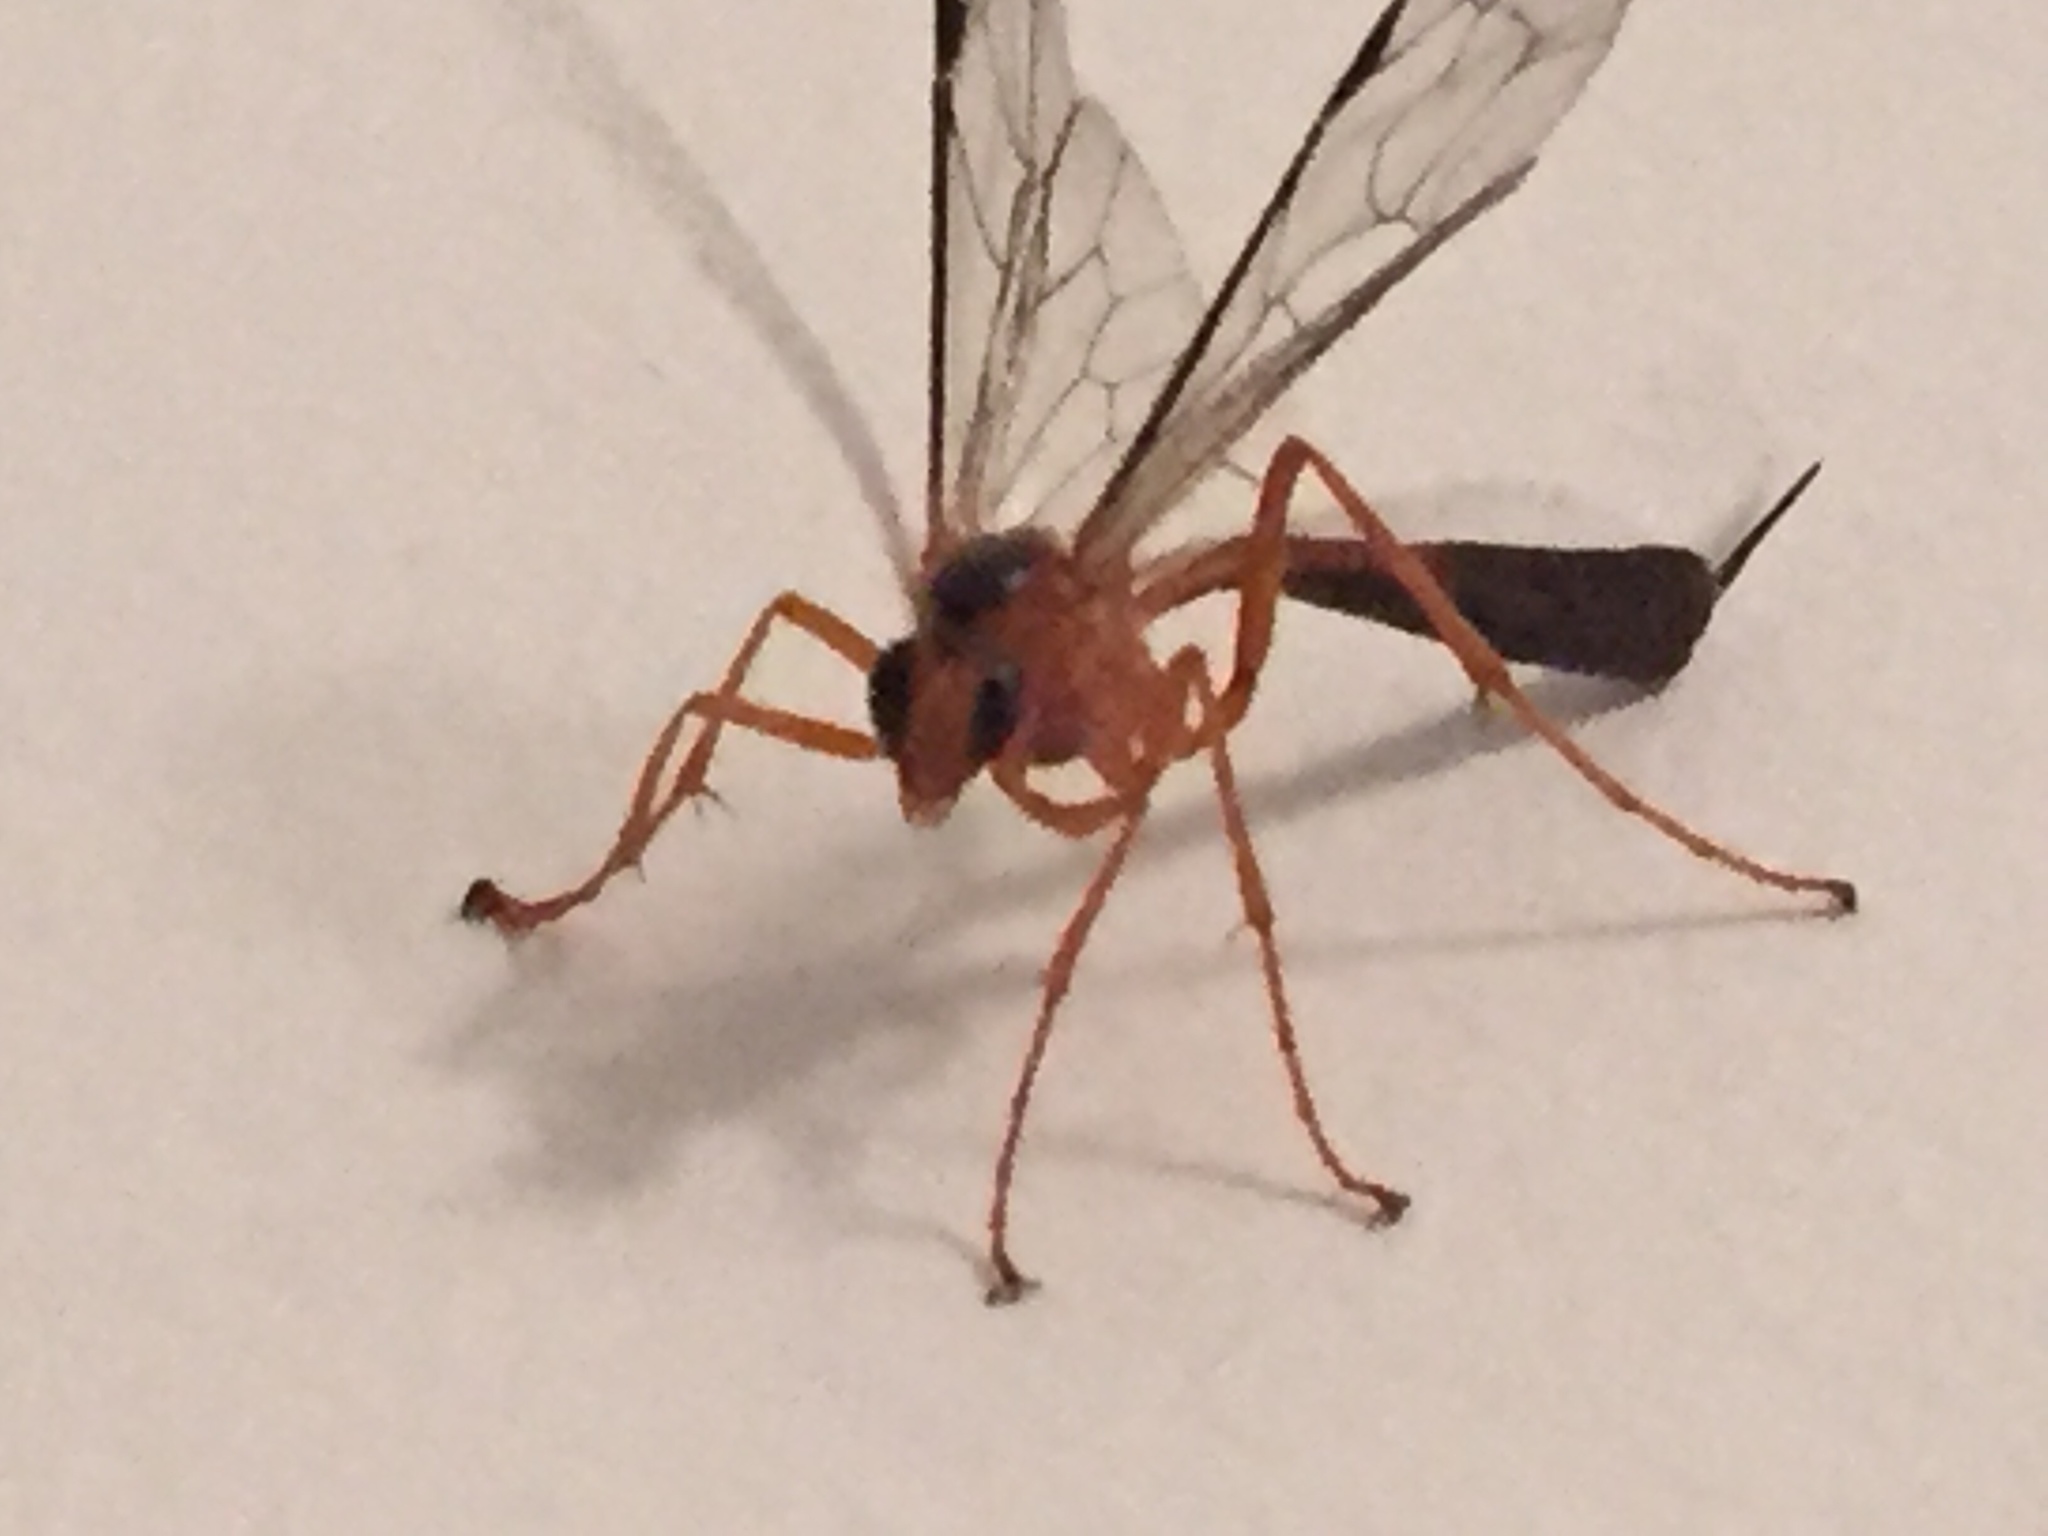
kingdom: Animalia
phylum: Arthropoda
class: Insecta
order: Hymenoptera
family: Ichneumonidae
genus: Netelia
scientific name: Netelia ephippiata
